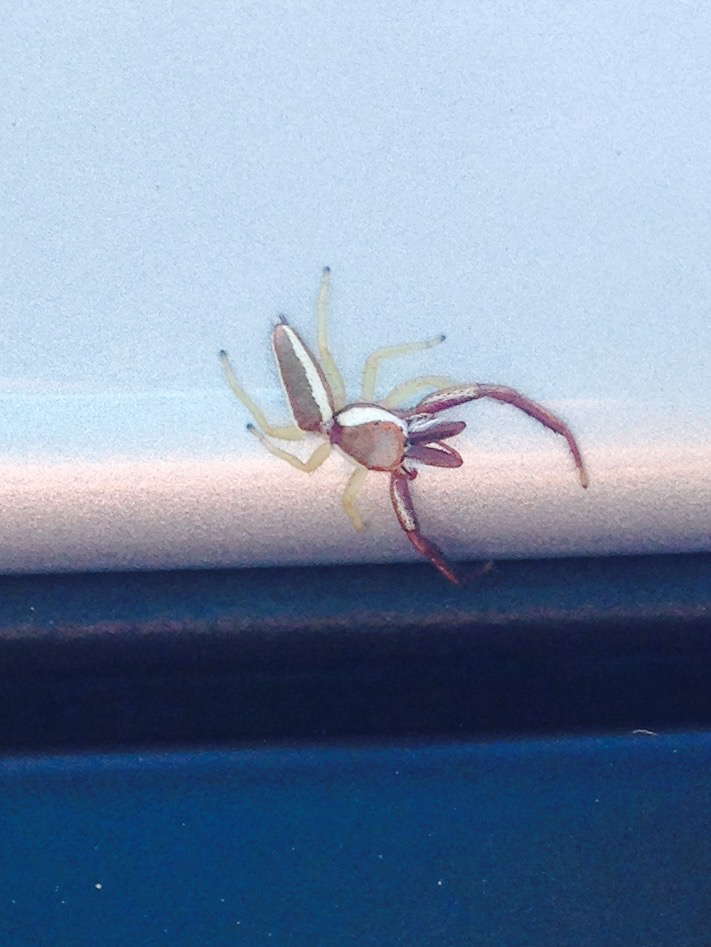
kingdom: Animalia
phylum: Arthropoda
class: Arachnida
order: Araneae
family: Salticidae
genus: Hentzia
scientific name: Hentzia palmarum
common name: Common hentz jumping spider
